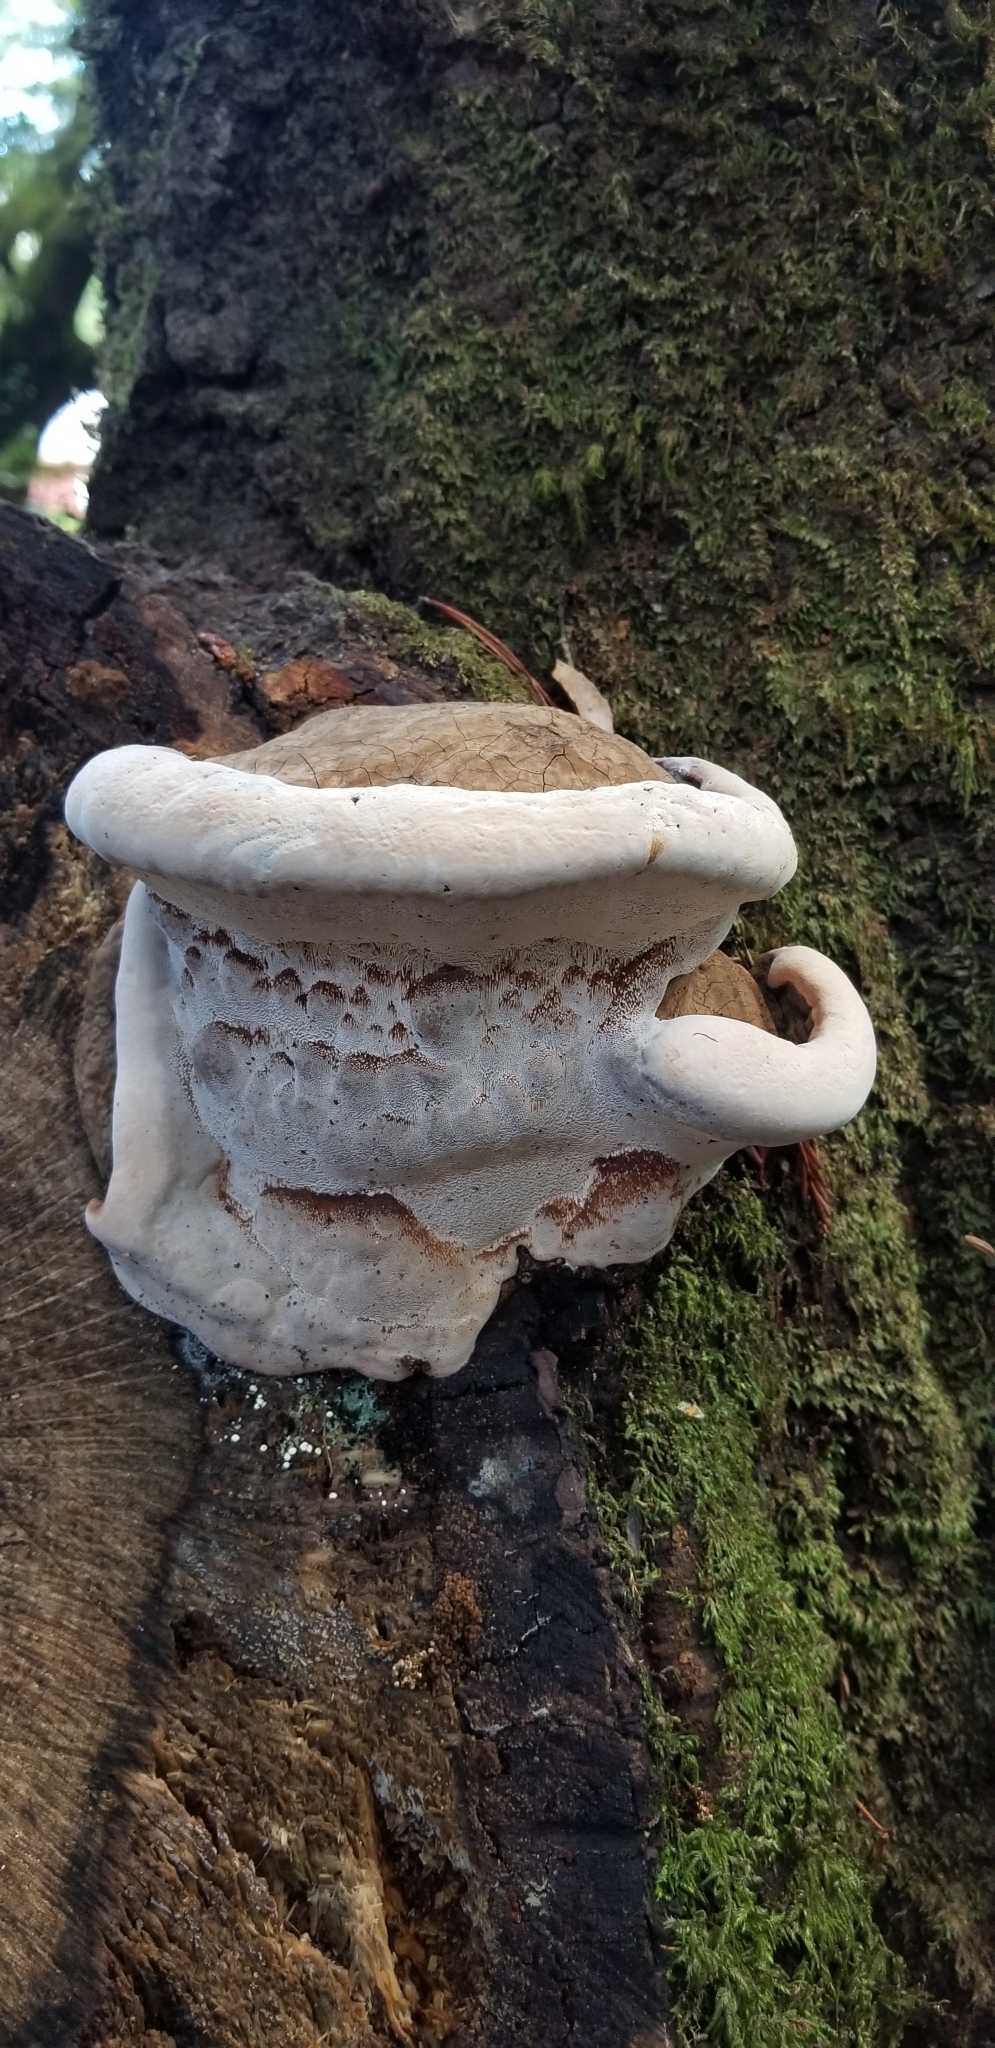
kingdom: Fungi
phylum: Basidiomycota
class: Agaricomycetes
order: Polyporales
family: Polyporaceae
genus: Ganoderma
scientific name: Ganoderma brownii
